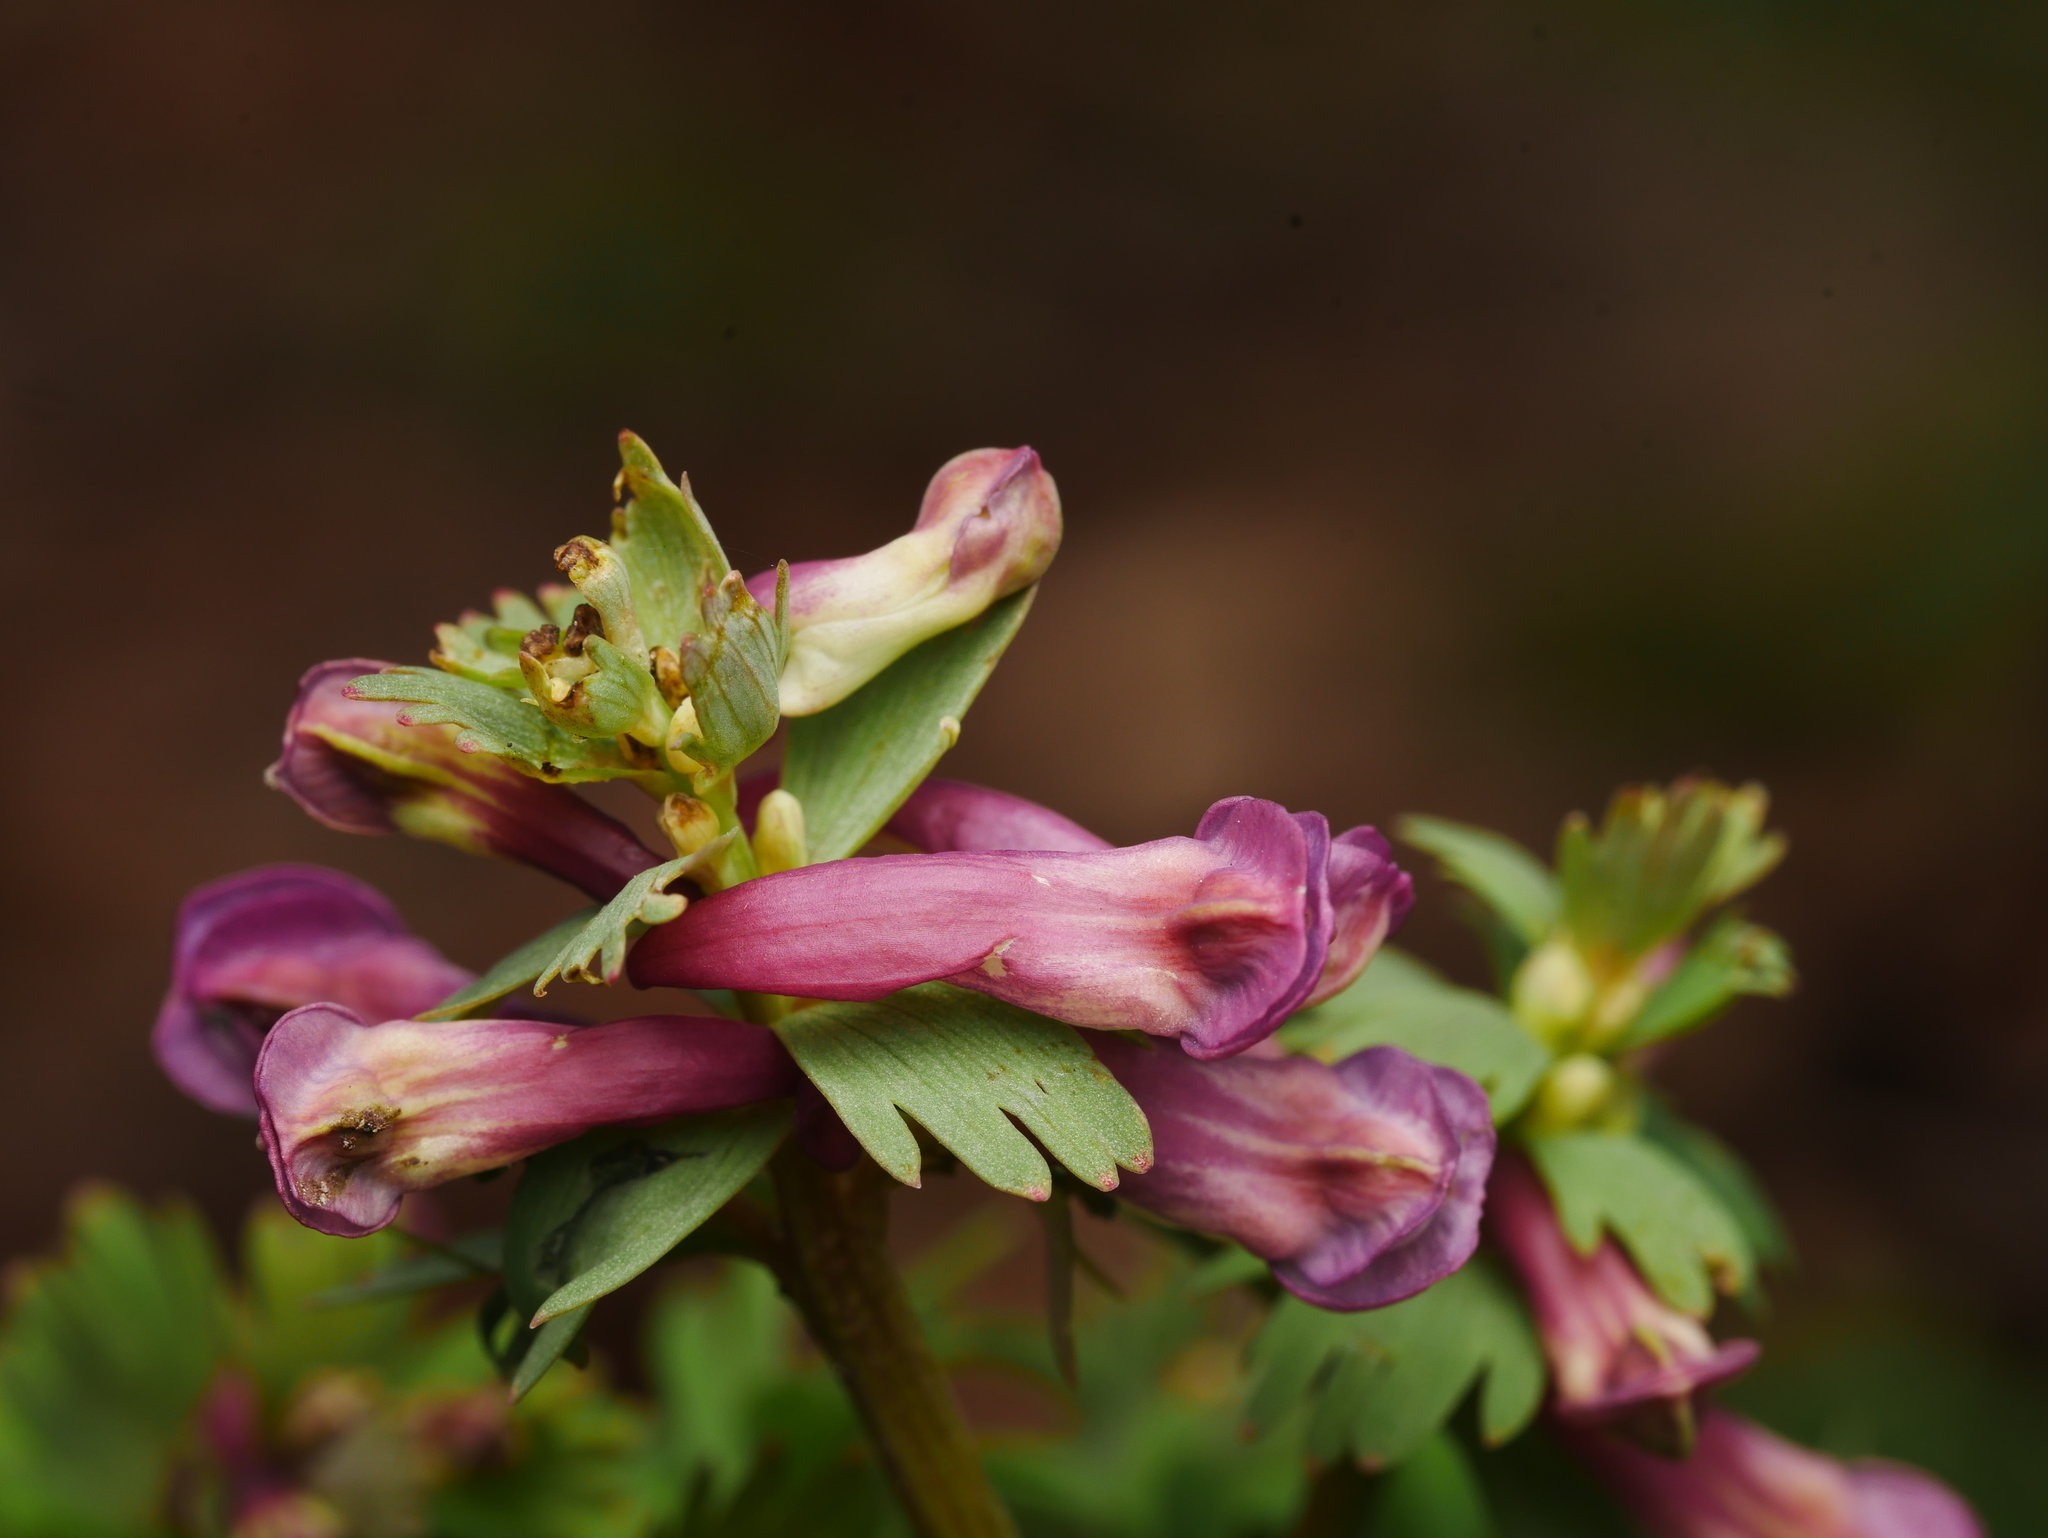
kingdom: Plantae
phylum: Tracheophyta
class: Magnoliopsida
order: Ranunculales
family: Papaveraceae
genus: Corydalis
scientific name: Corydalis solida
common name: Bird-in-a-bush
